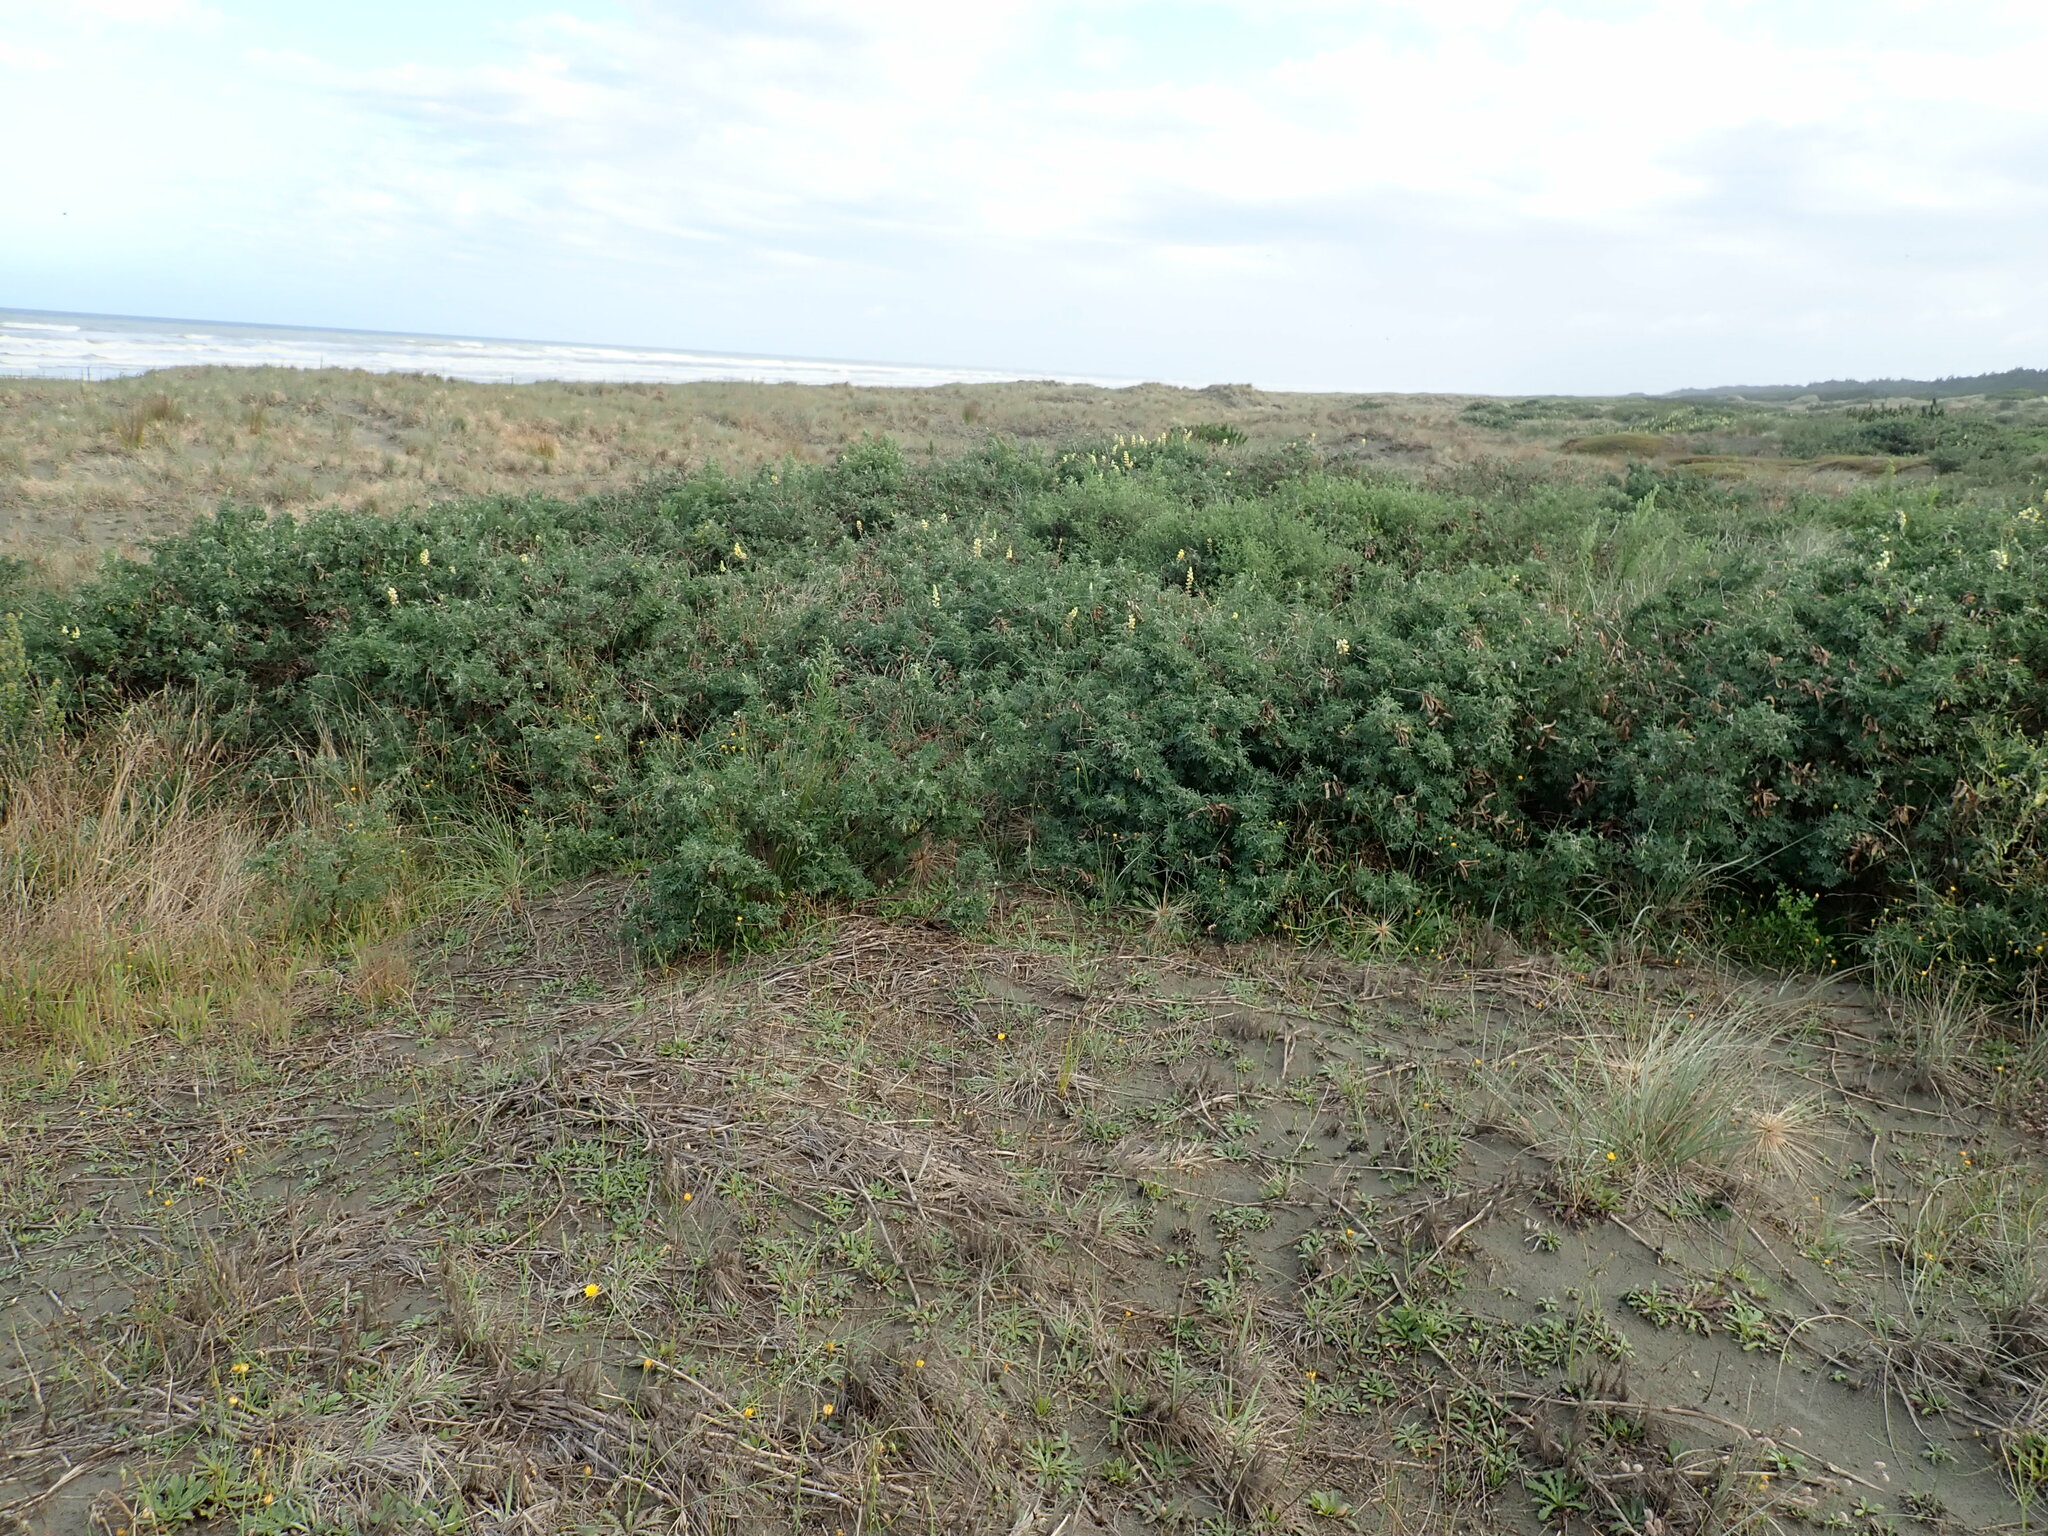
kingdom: Plantae
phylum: Tracheophyta
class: Magnoliopsida
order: Fabales
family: Fabaceae
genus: Lupinus
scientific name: Lupinus arboreus
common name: Yellow bush lupine
